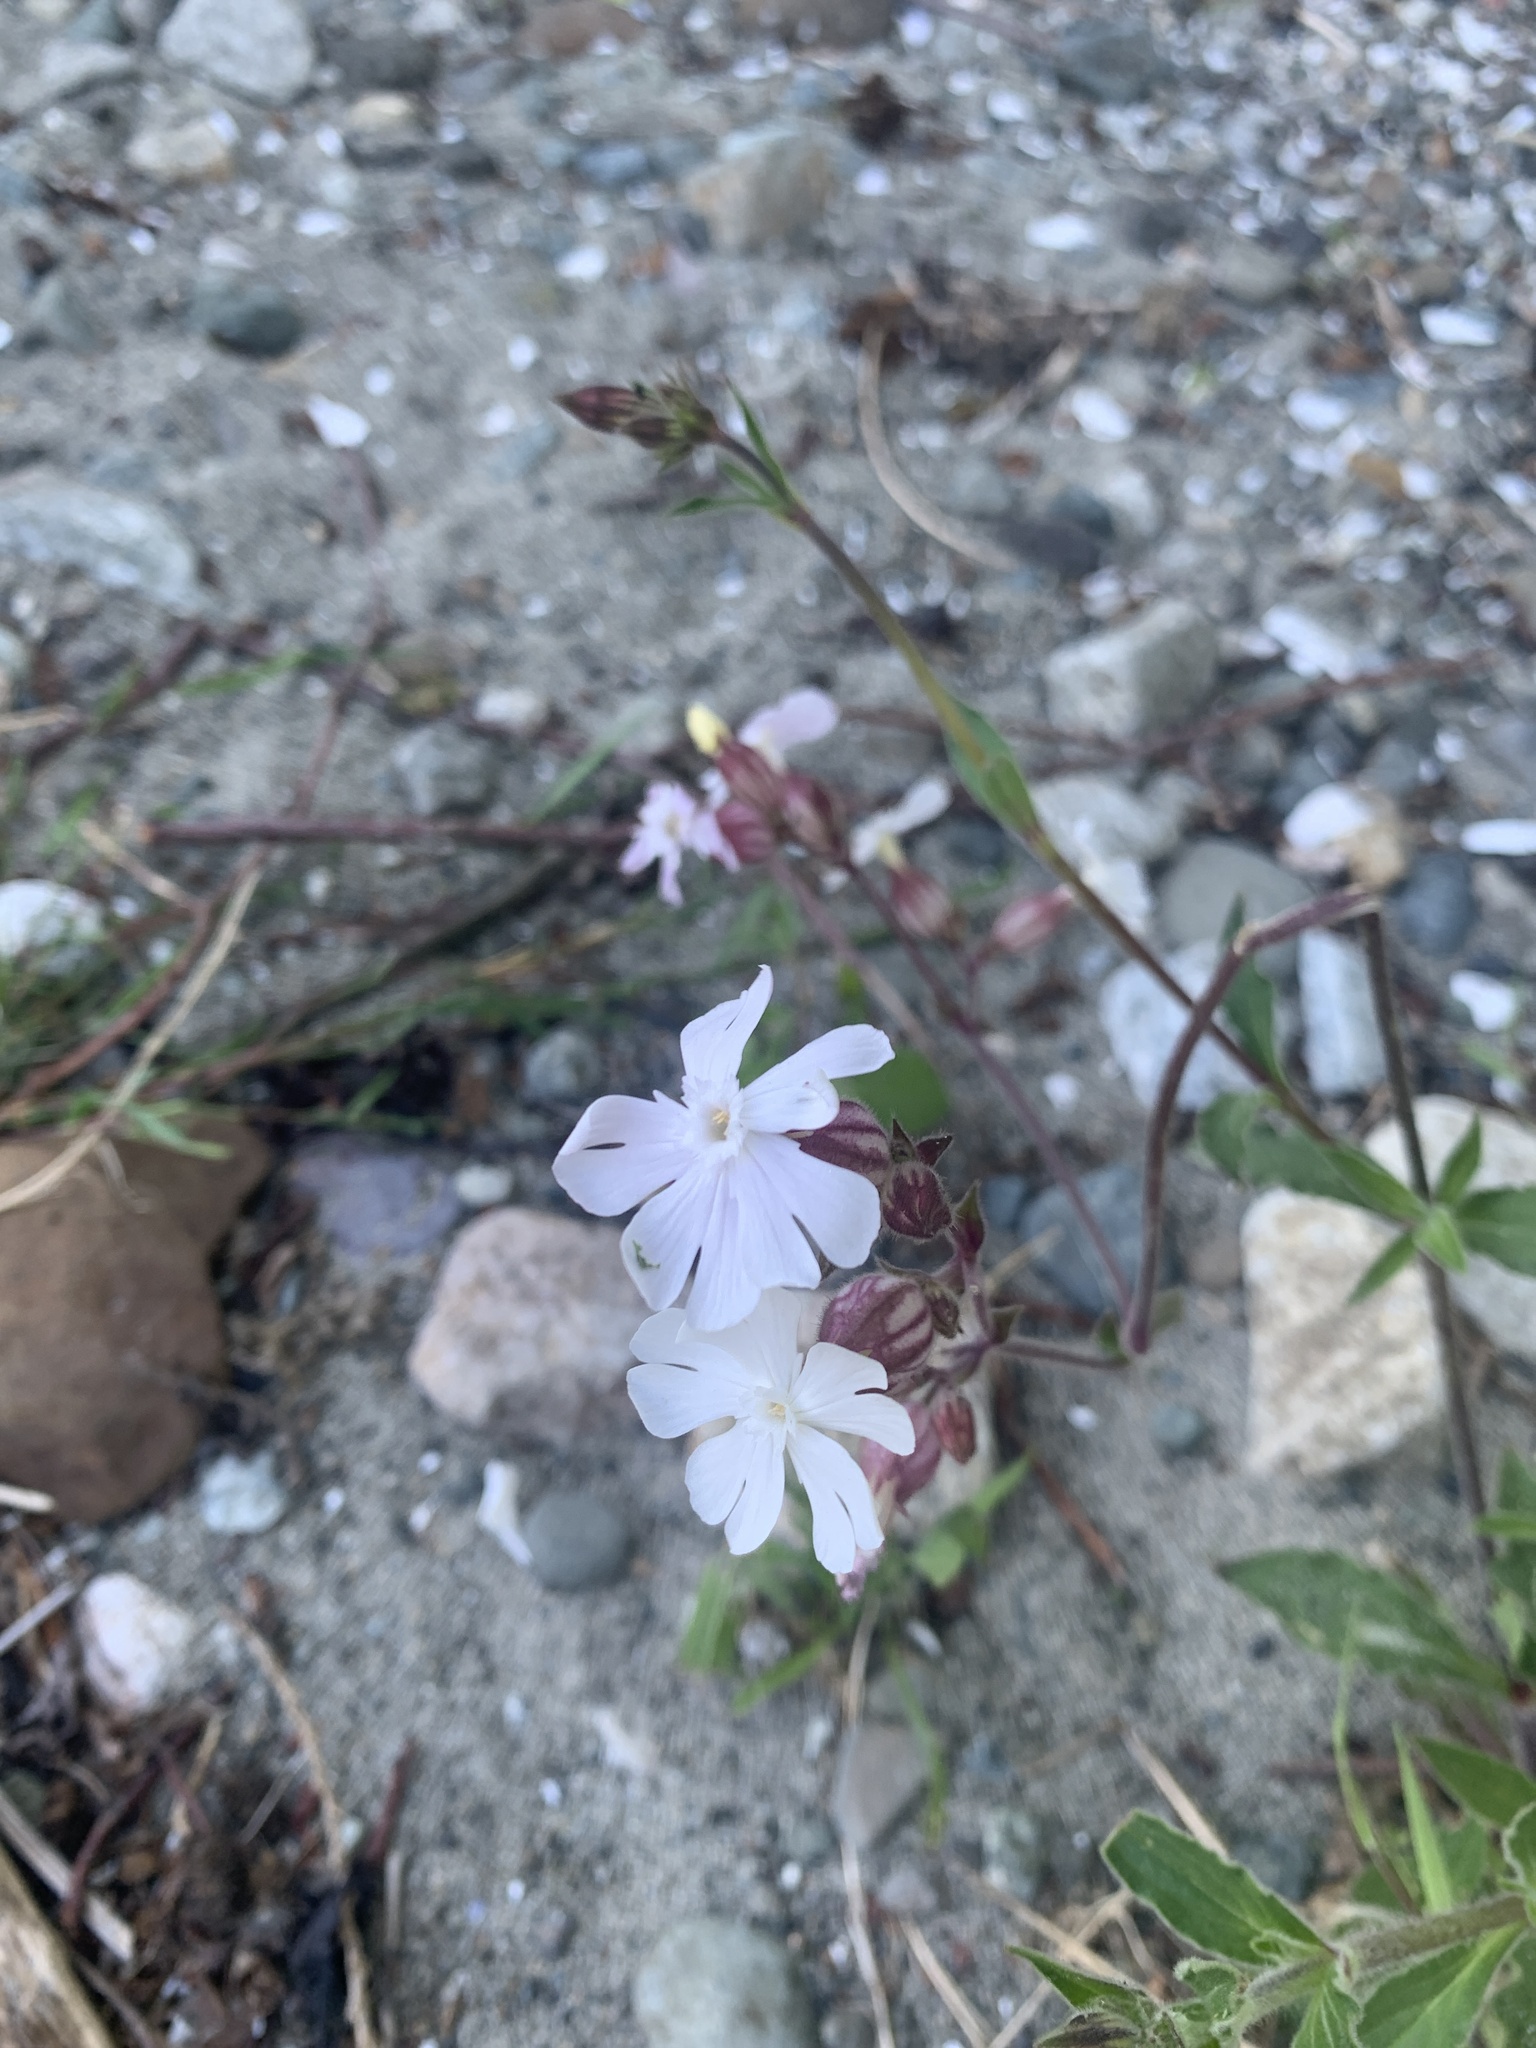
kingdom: Plantae
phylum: Tracheophyta
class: Magnoliopsida
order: Caryophyllales
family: Caryophyllaceae
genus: Silene
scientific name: Silene latifolia
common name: White campion
